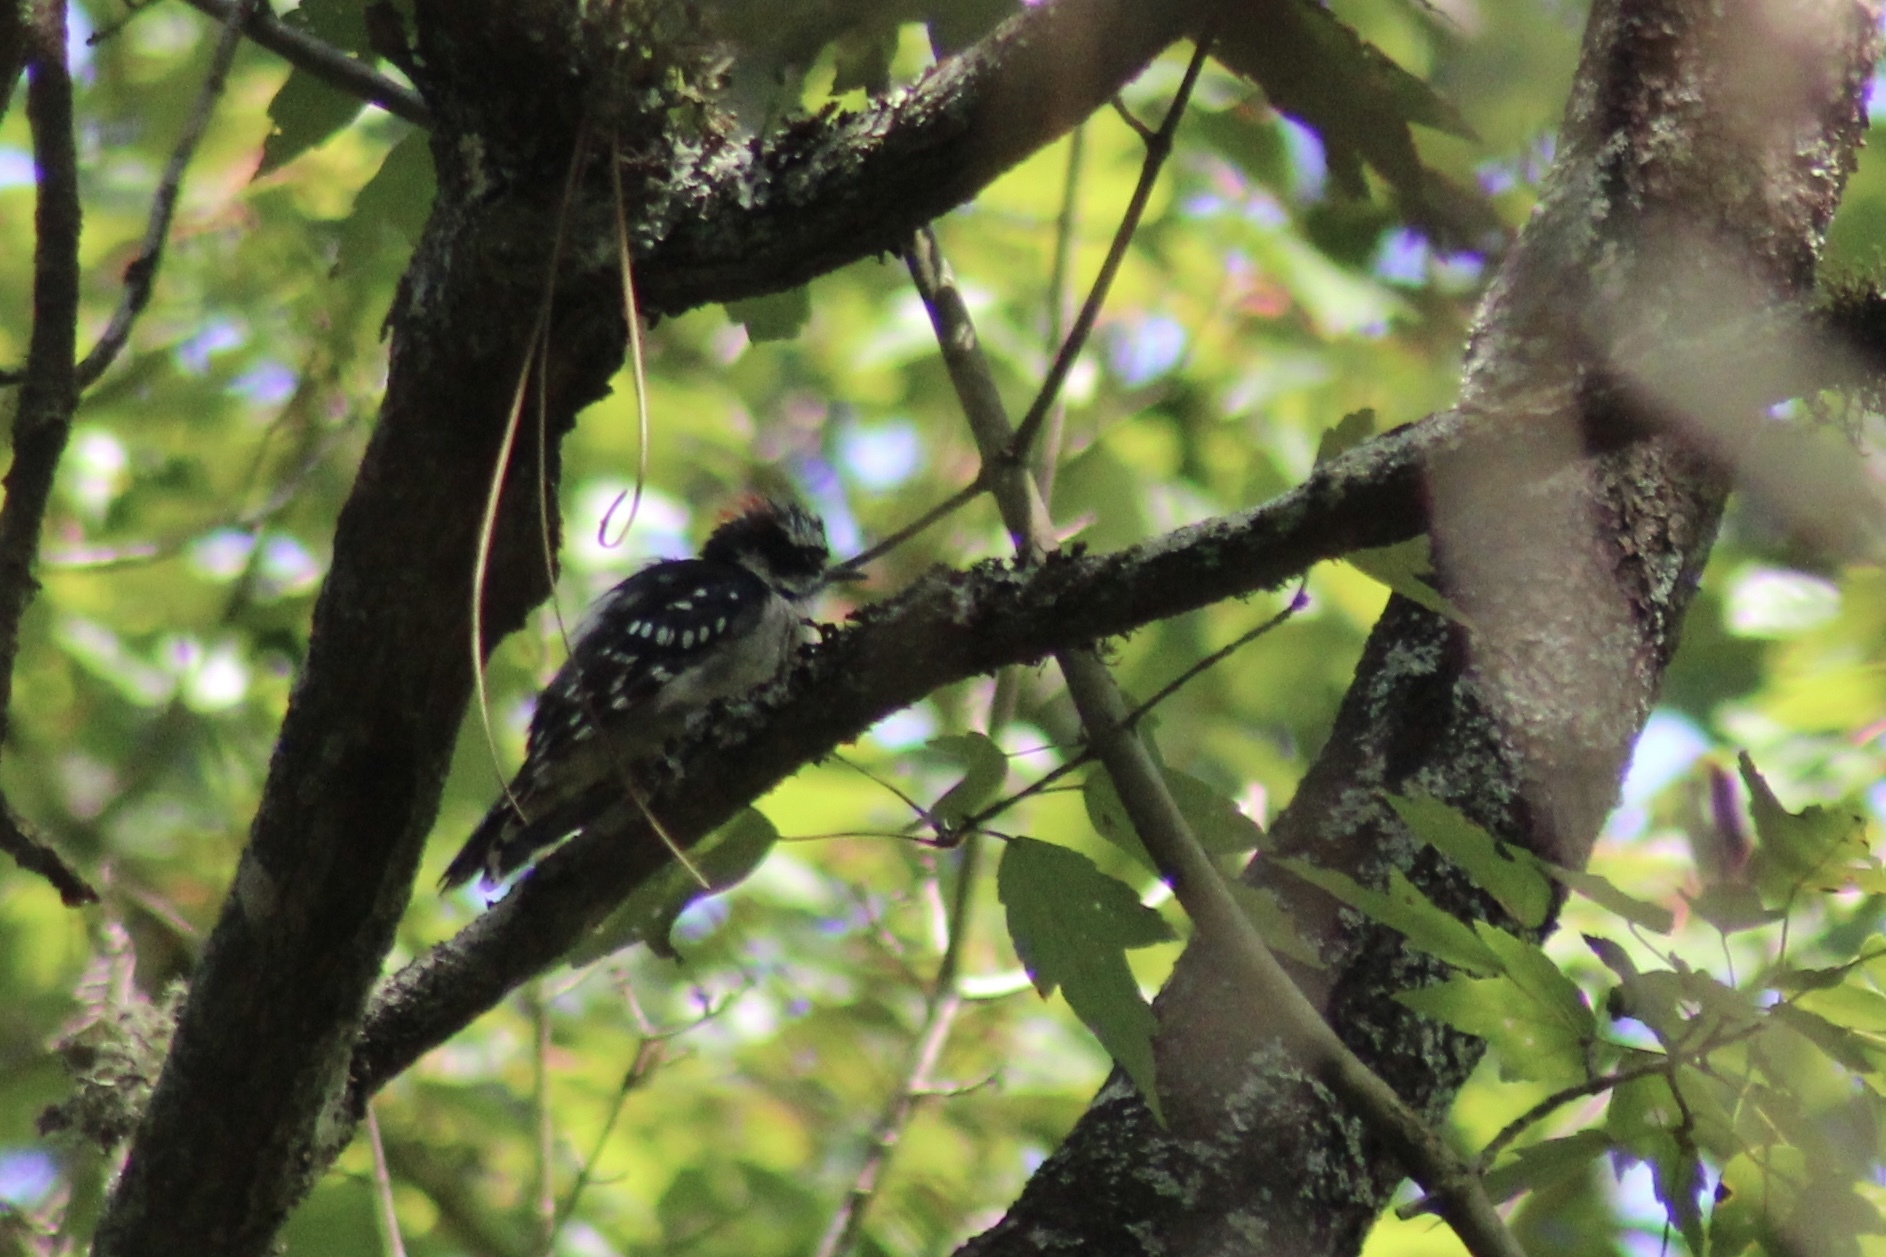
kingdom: Animalia
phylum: Chordata
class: Aves
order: Piciformes
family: Picidae
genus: Dryobates
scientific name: Dryobates pubescens
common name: Downy woodpecker
